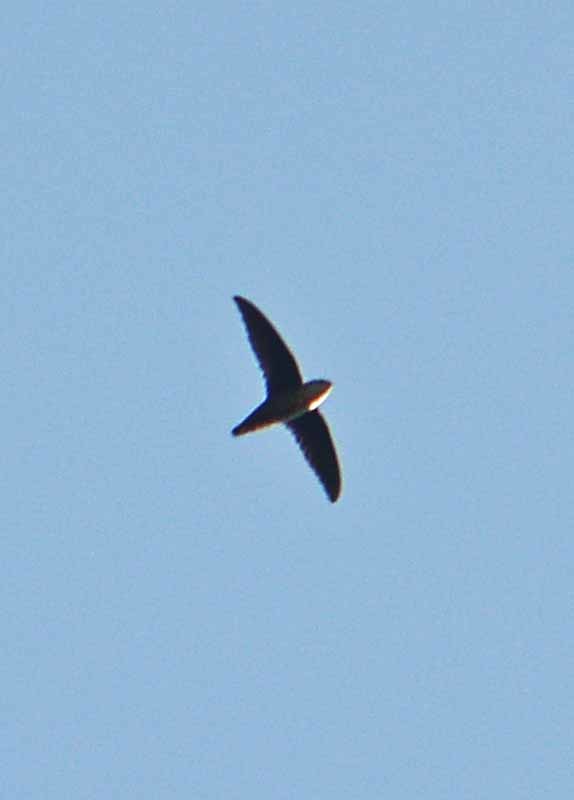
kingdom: Animalia
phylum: Chordata
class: Aves
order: Apodiformes
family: Apodidae
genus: Chaetura
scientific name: Chaetura vauxi
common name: Vaux's swift
